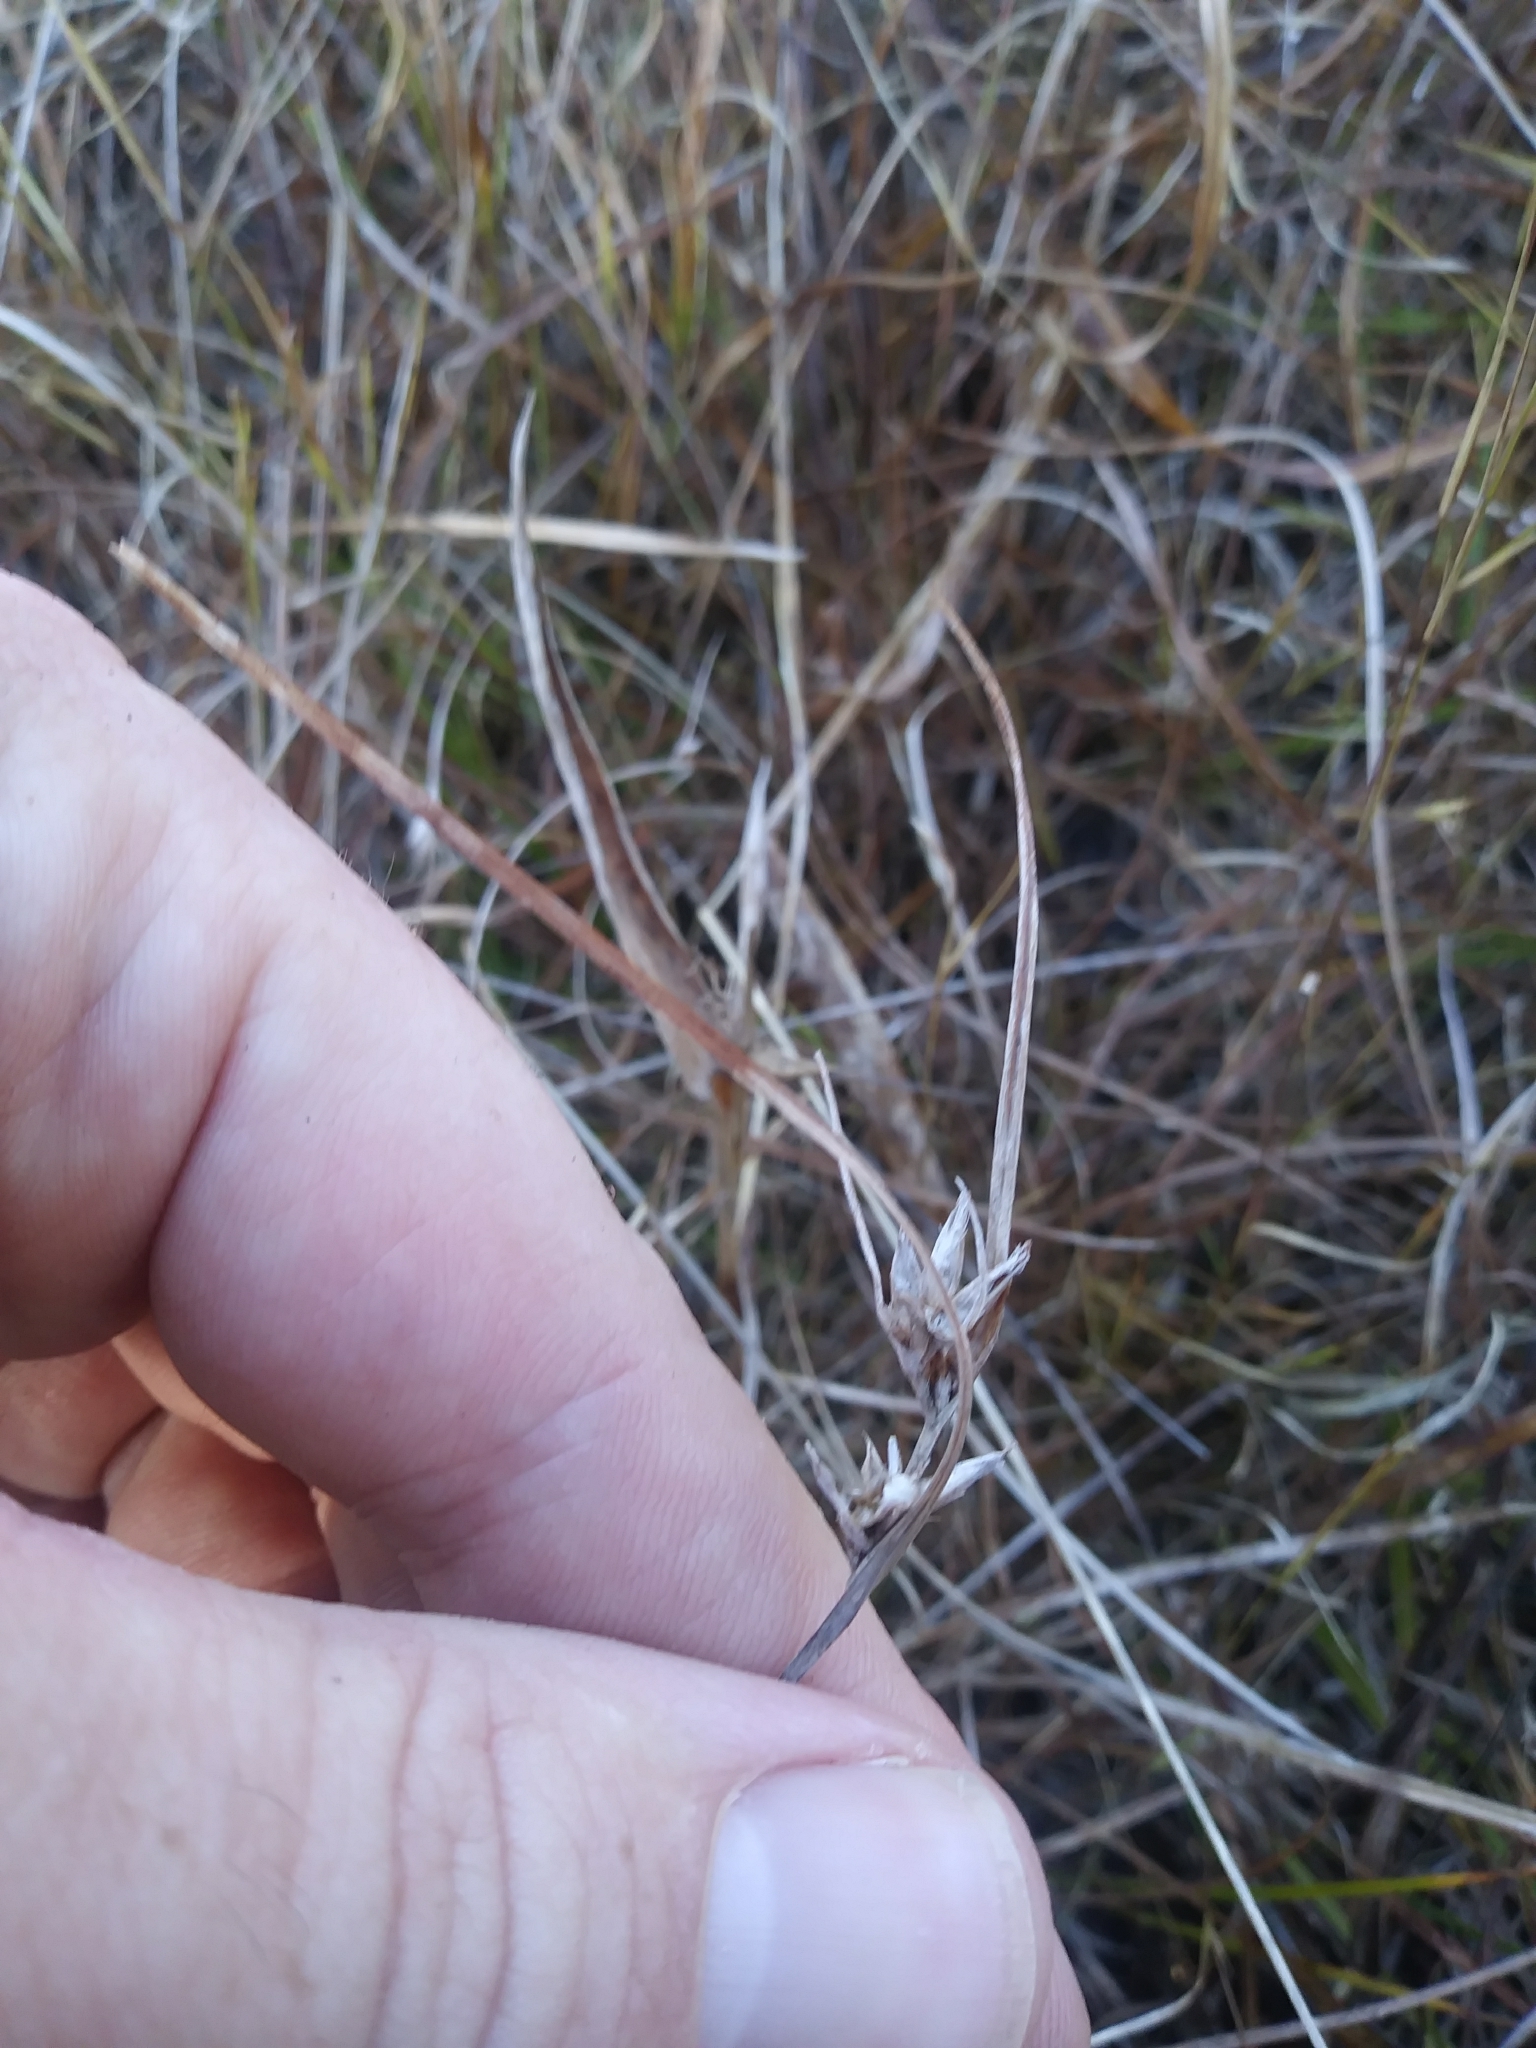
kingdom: Plantae
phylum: Tracheophyta
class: Liliopsida
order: Poales
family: Cyperaceae
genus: Scleria
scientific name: Scleria pauciflora
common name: Few-flowered nutrush
